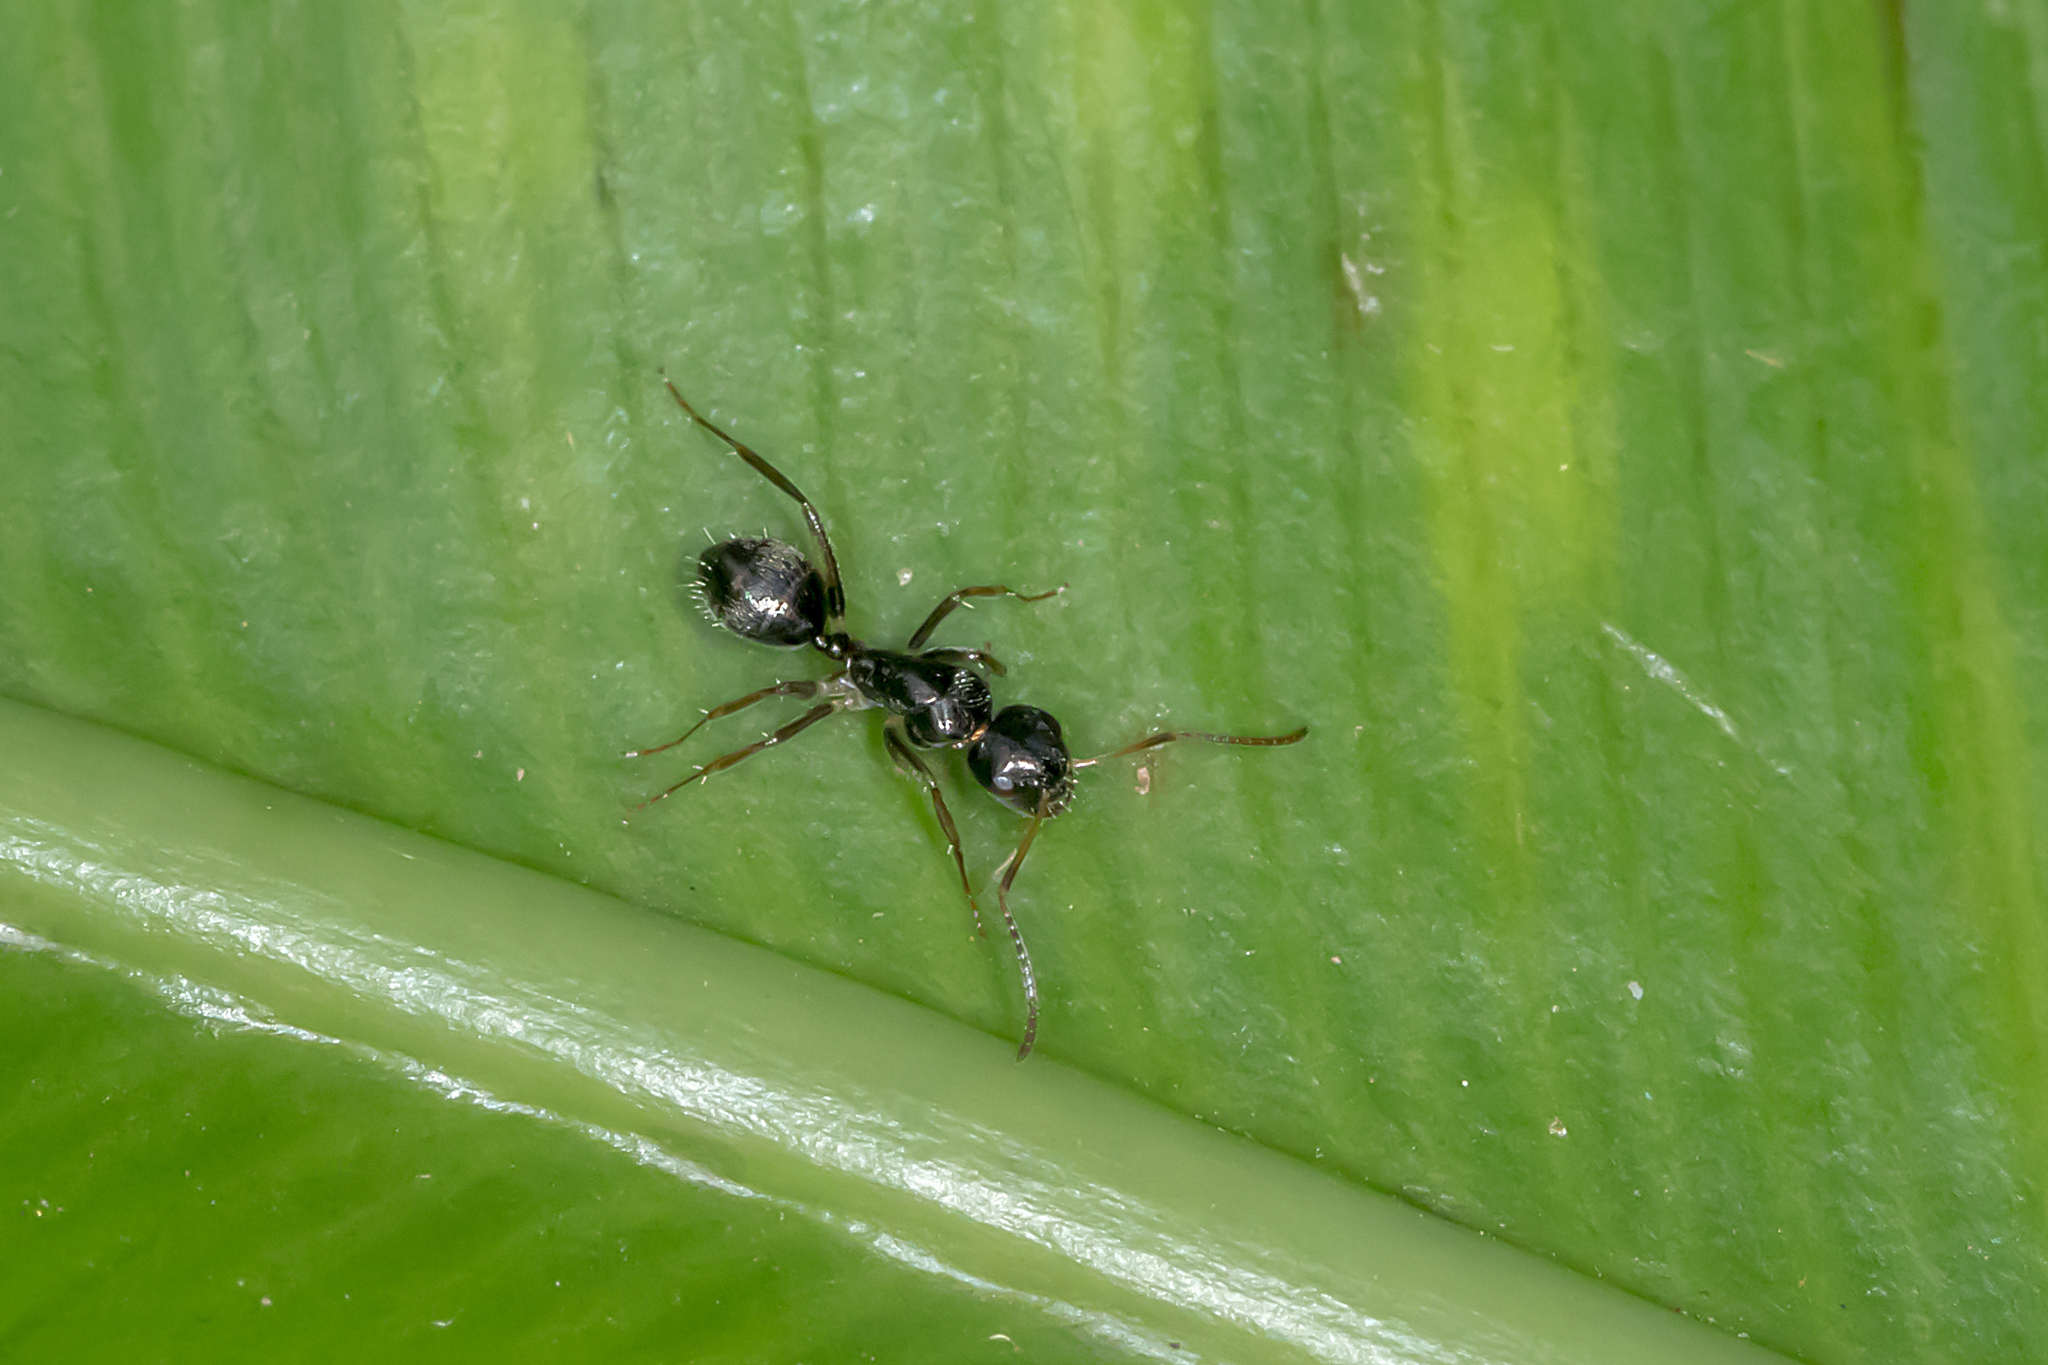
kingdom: Animalia
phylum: Arthropoda
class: Insecta
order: Hymenoptera
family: Formicidae
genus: Camponotus
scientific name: Camponotus froggatti
